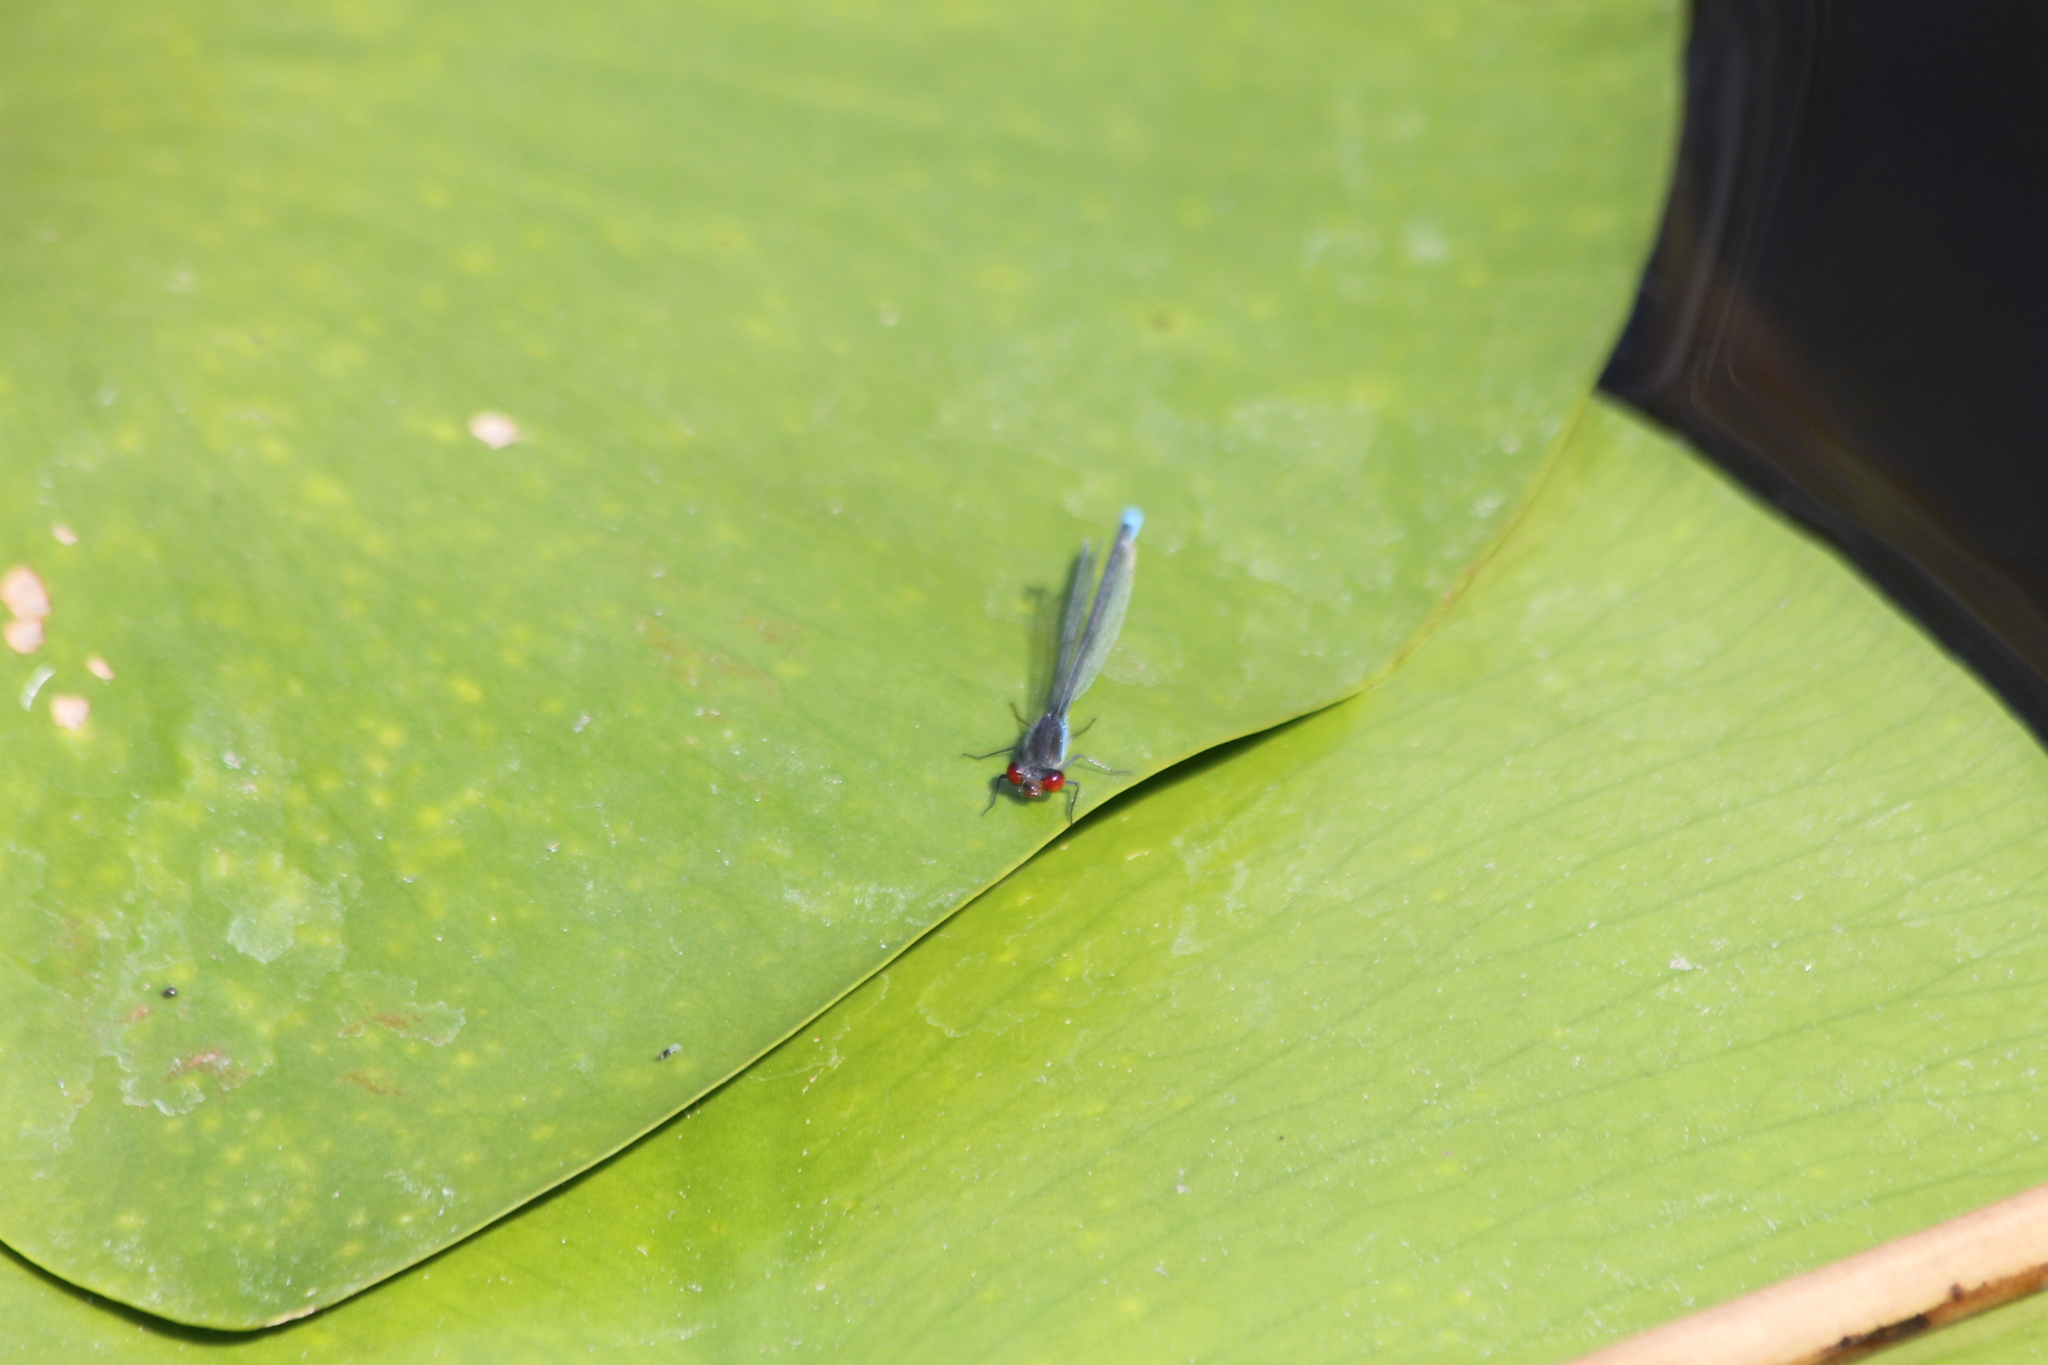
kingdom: Animalia
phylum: Arthropoda
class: Insecta
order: Odonata
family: Coenagrionidae
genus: Erythromma
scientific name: Erythromma viridulum
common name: Small red-eyed damselfly
